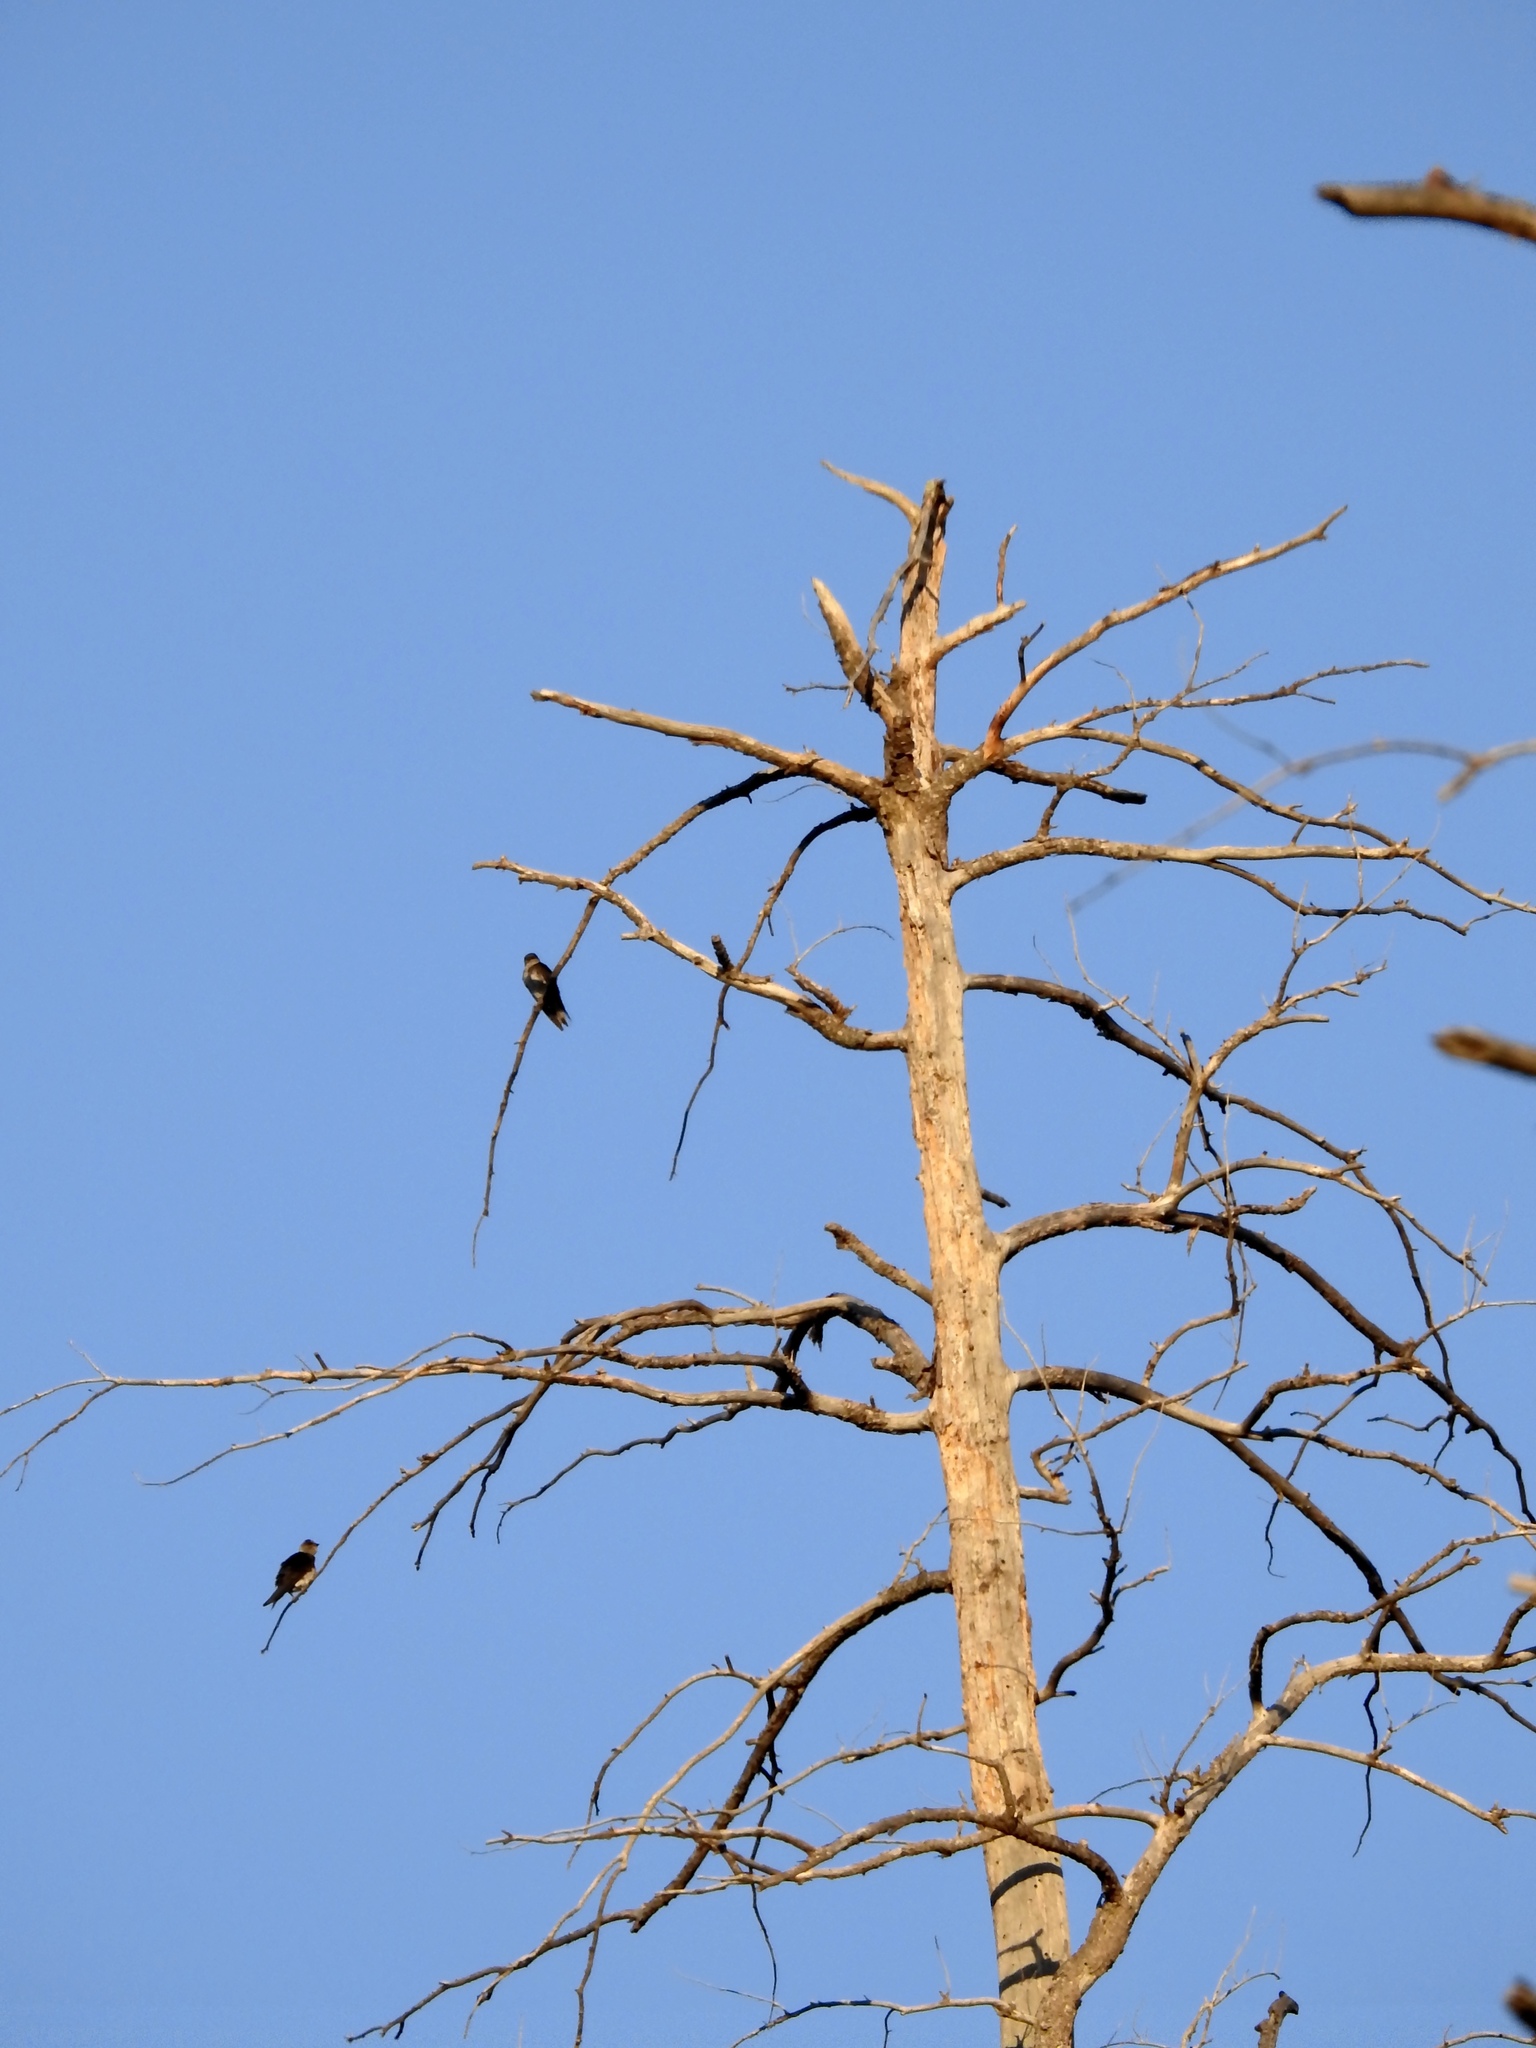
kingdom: Animalia
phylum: Chordata
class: Aves
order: Passeriformes
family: Hirundinidae
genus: Tachycineta
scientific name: Tachycineta thalassina
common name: Violet-green swallow
